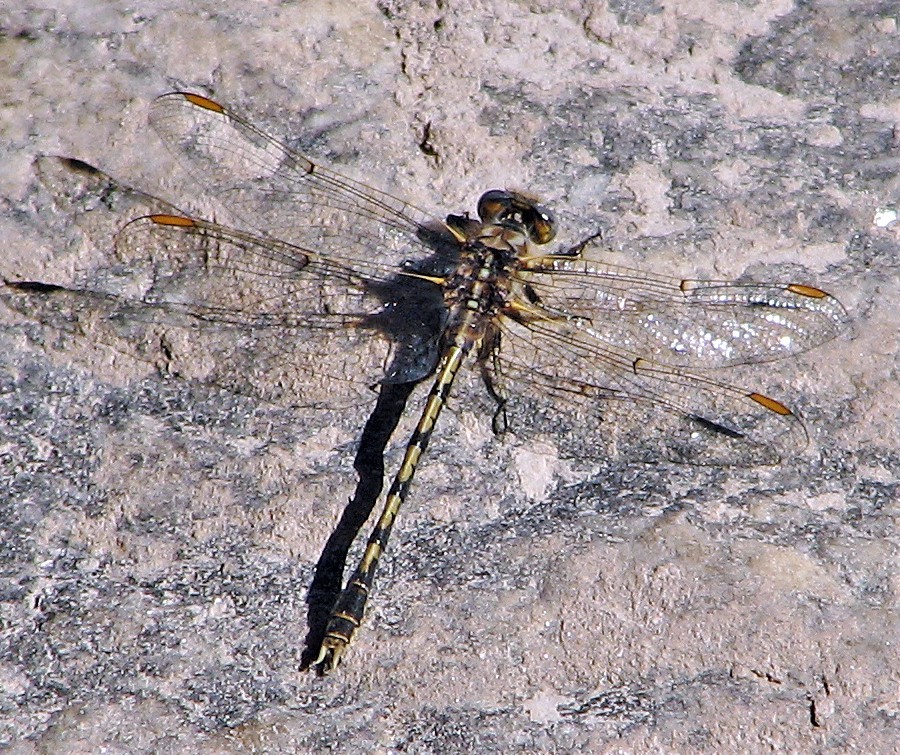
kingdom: Animalia
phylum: Arthropoda
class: Insecta
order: Odonata
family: Gomphidae
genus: Progomphus
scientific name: Progomphus joergenseni
